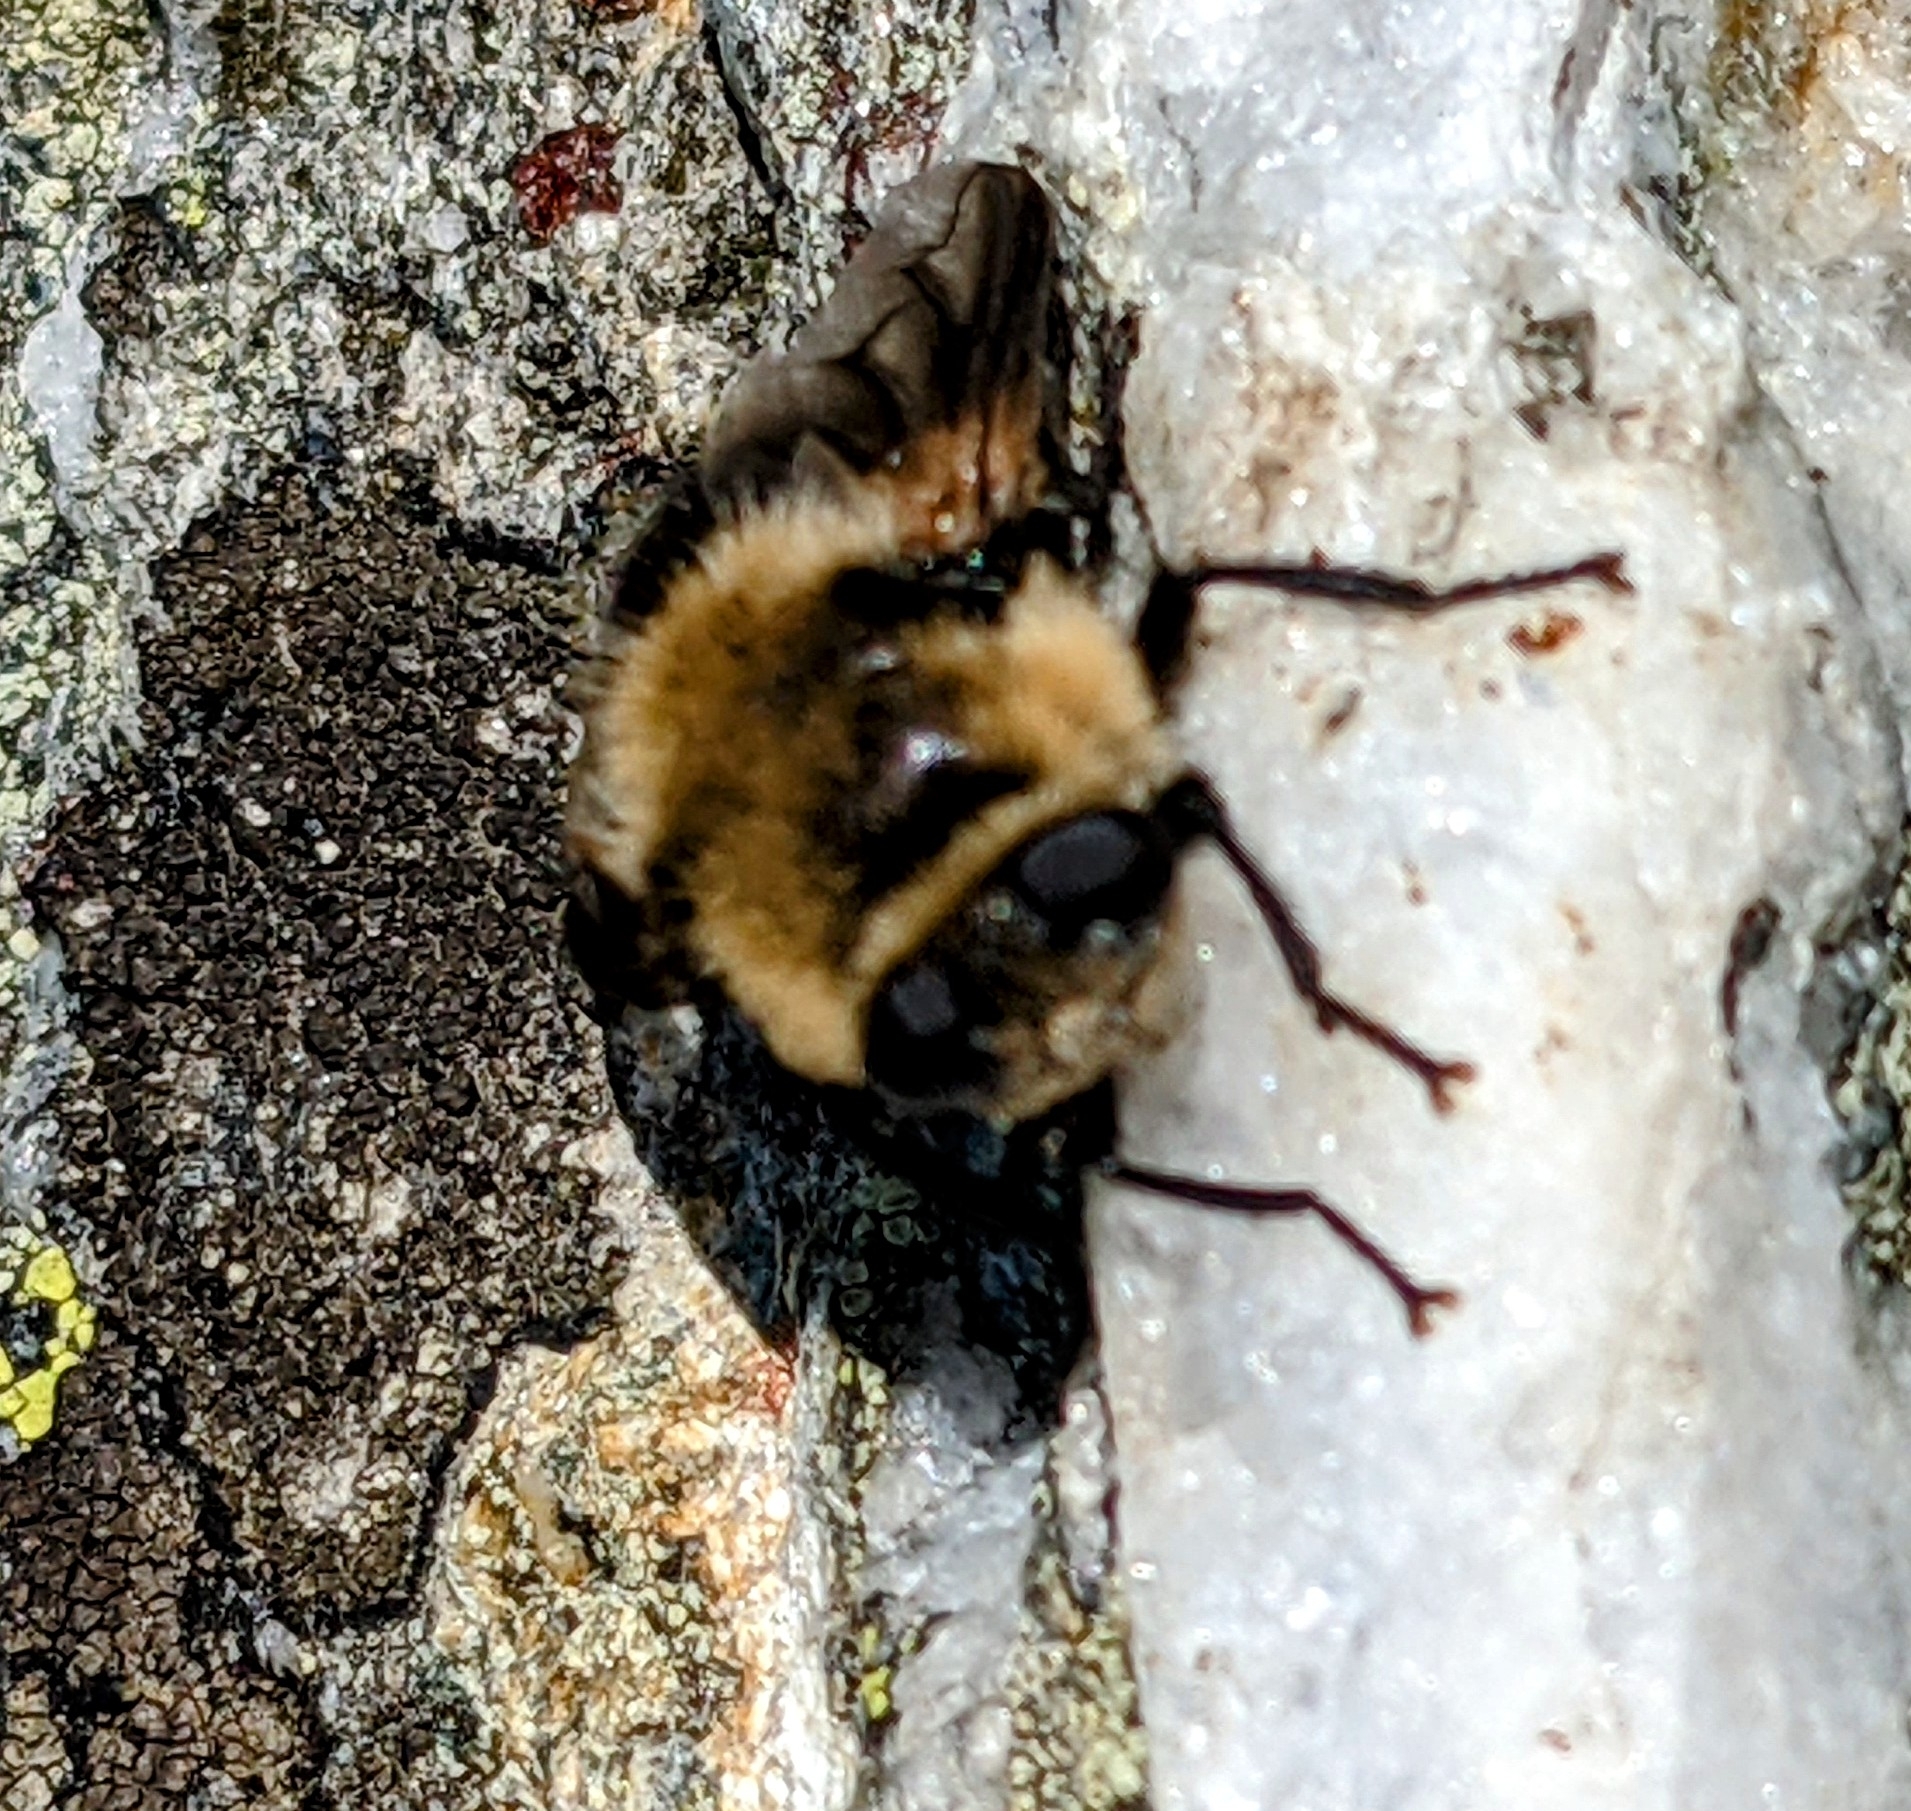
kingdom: Animalia
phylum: Arthropoda
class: Insecta
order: Diptera
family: Oestridae
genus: Cephenemyia
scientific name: Cephenemyia phobifer
